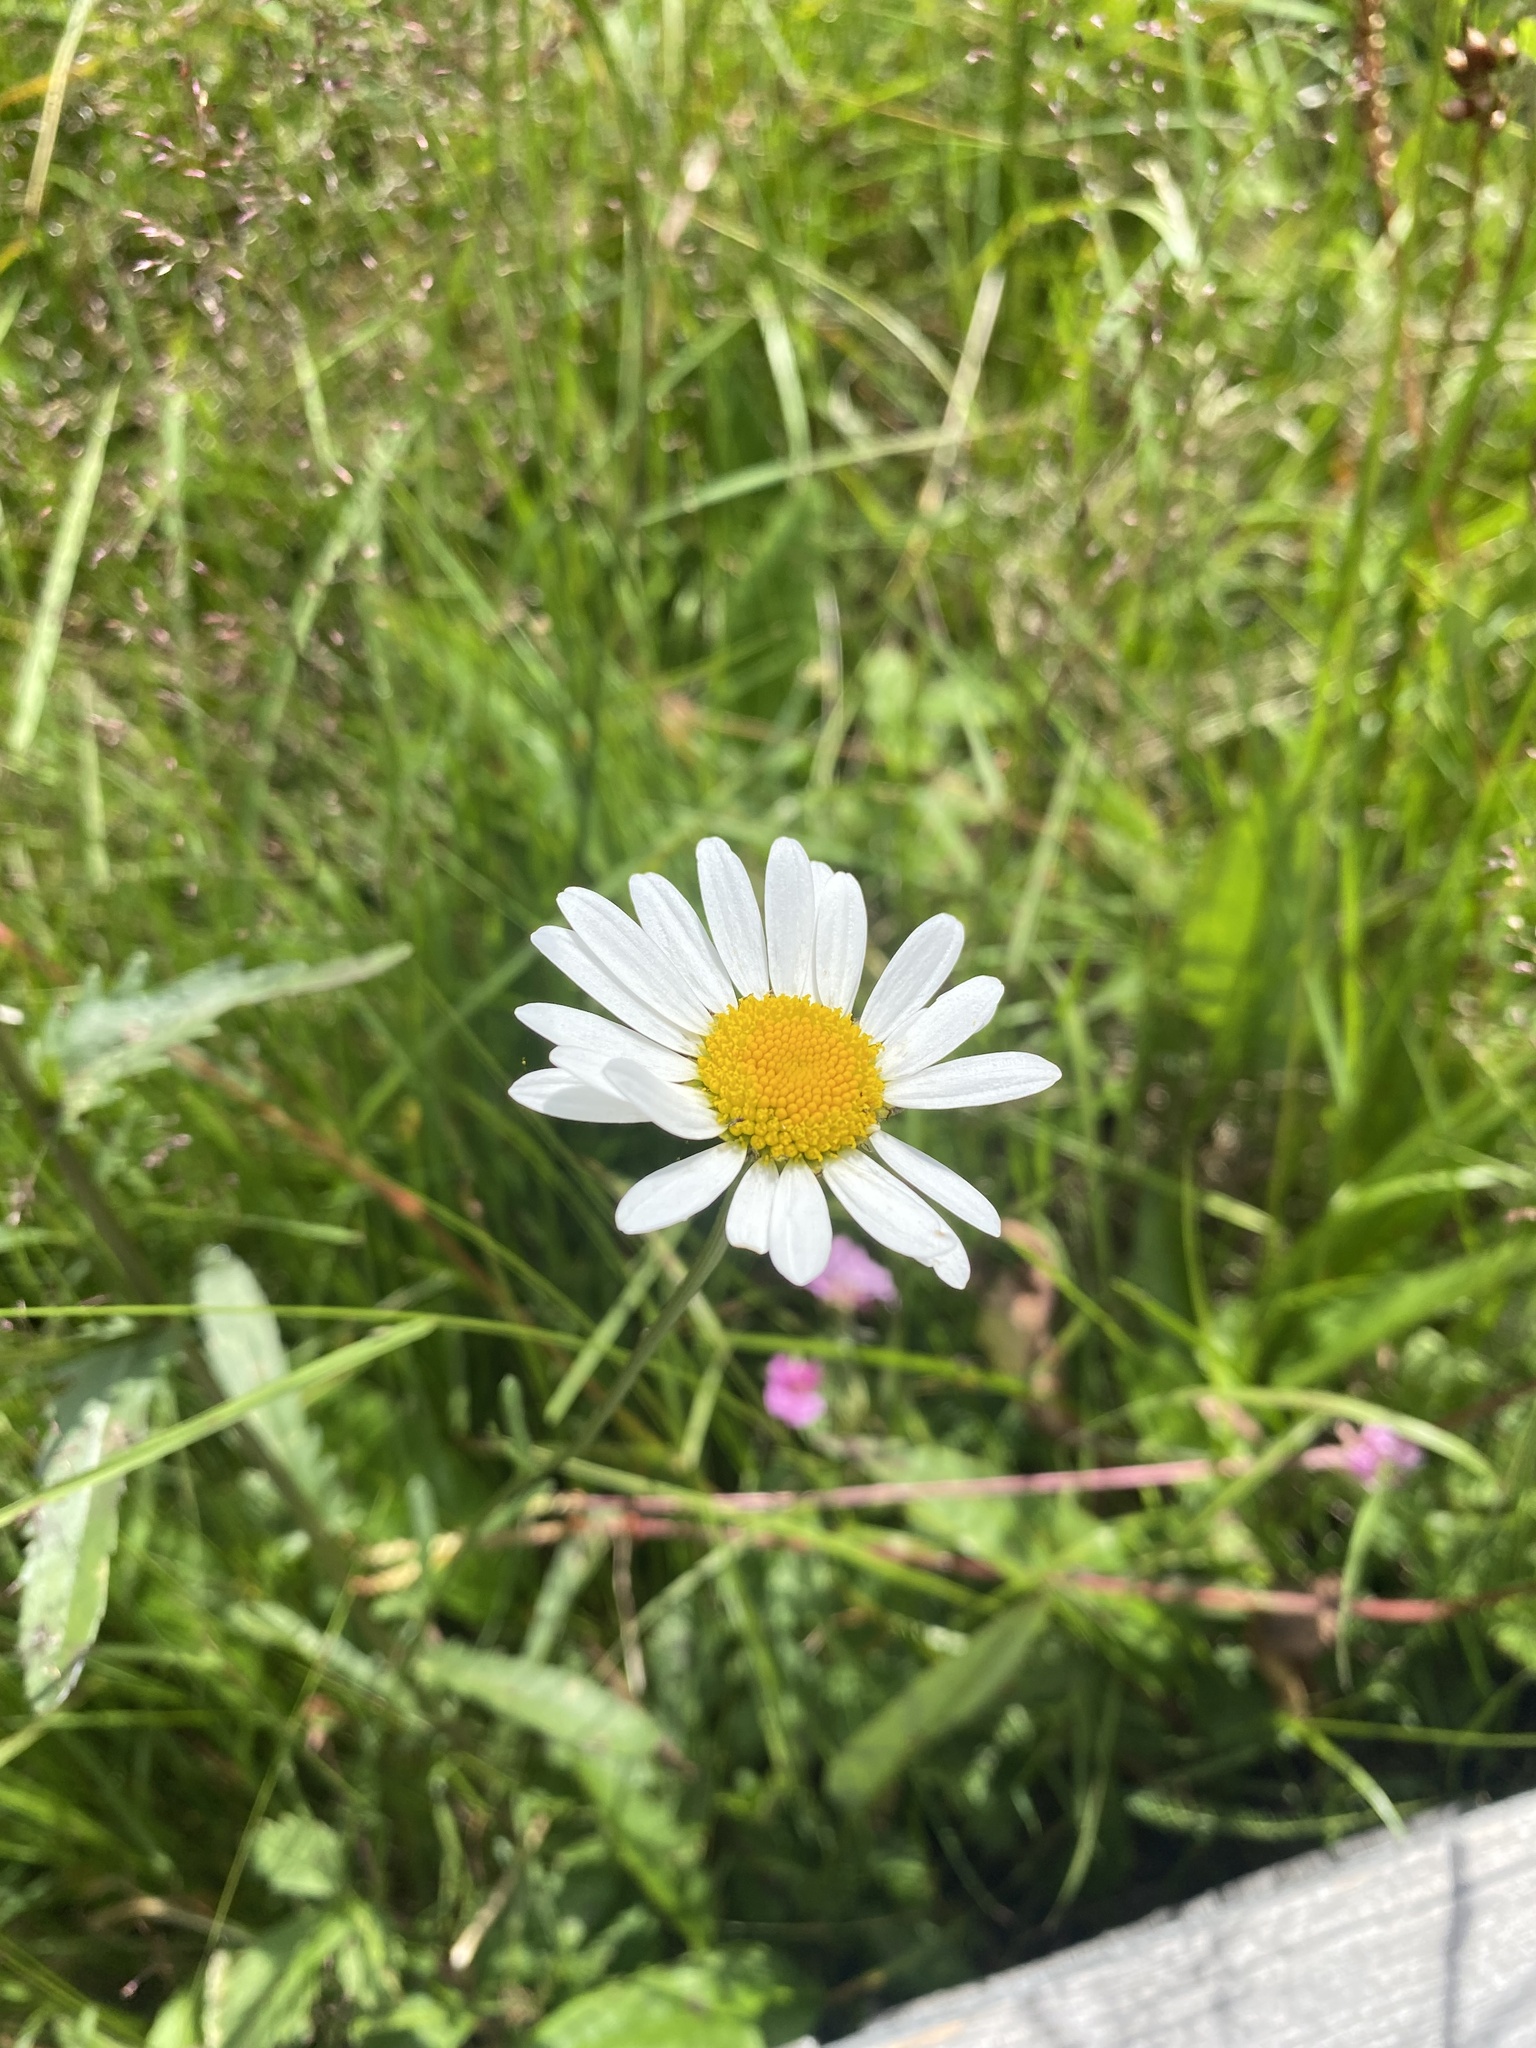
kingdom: Plantae
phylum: Tracheophyta
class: Magnoliopsida
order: Asterales
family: Asteraceae
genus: Leucanthemum
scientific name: Leucanthemum ircutianum
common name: Daisy
